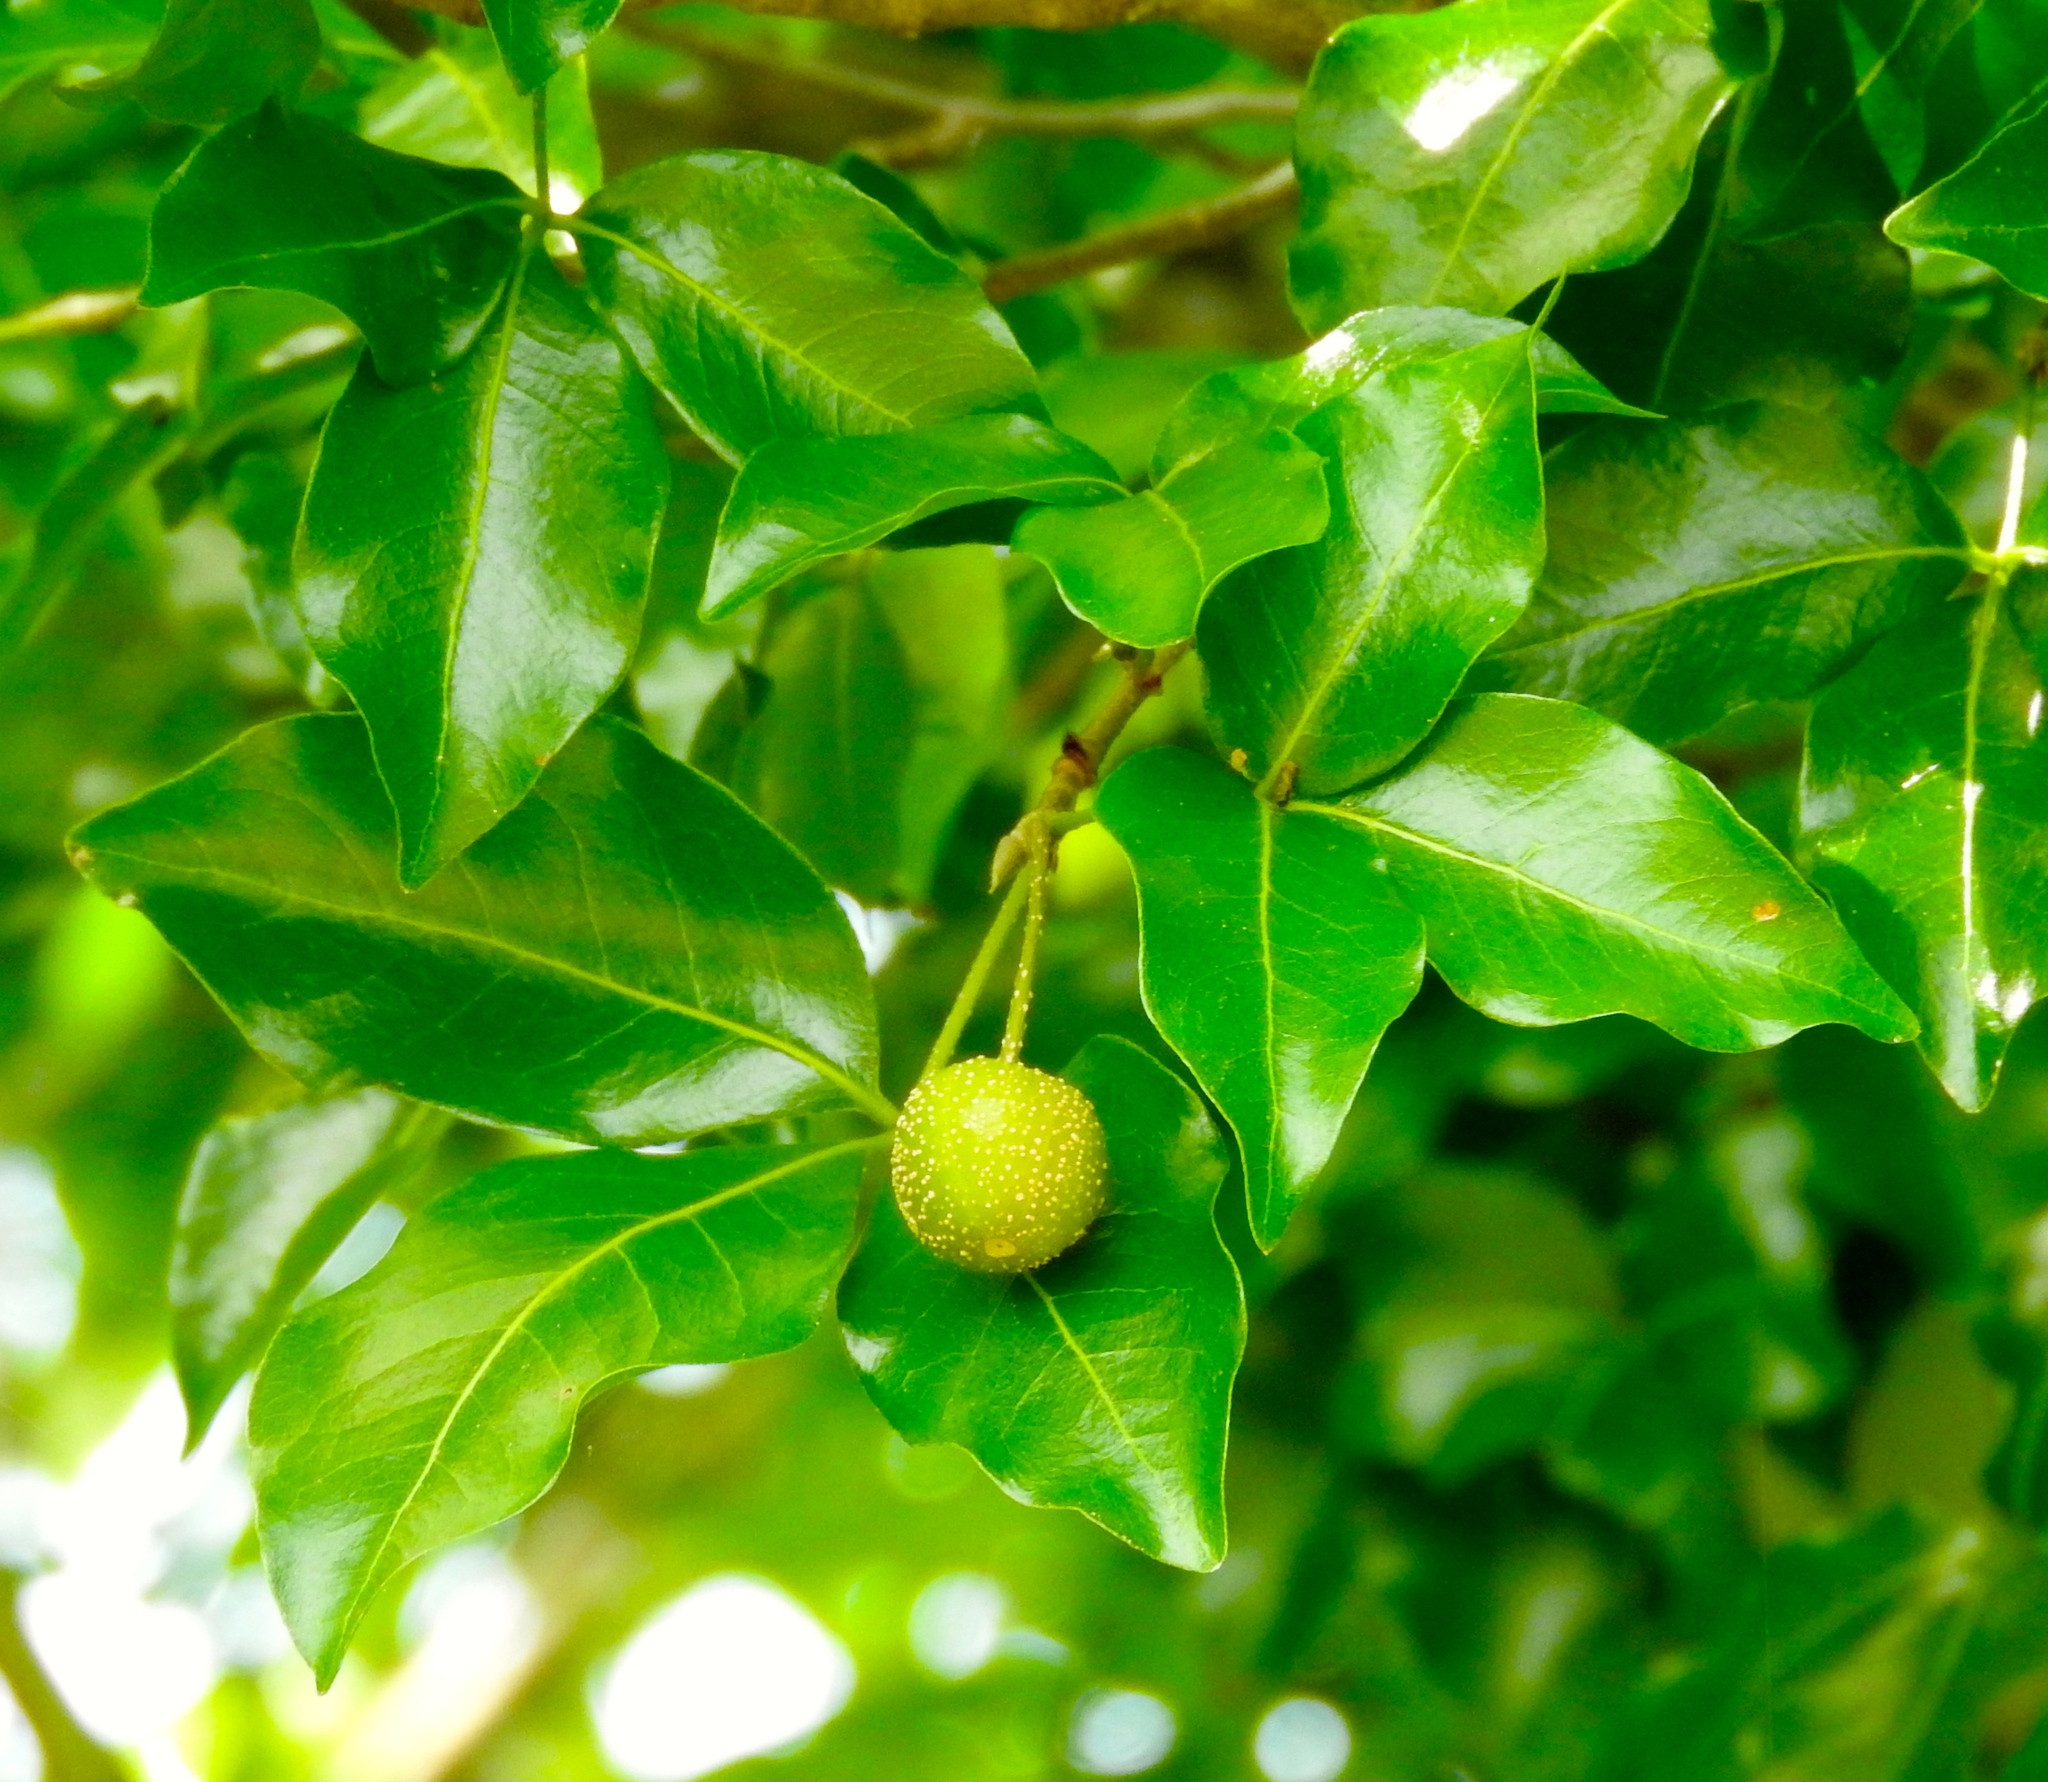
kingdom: Plantae
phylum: Tracheophyta
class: Magnoliopsida
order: Malpighiales
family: Picrodendraceae
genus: Piranhea
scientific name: Piranhea mexicana
